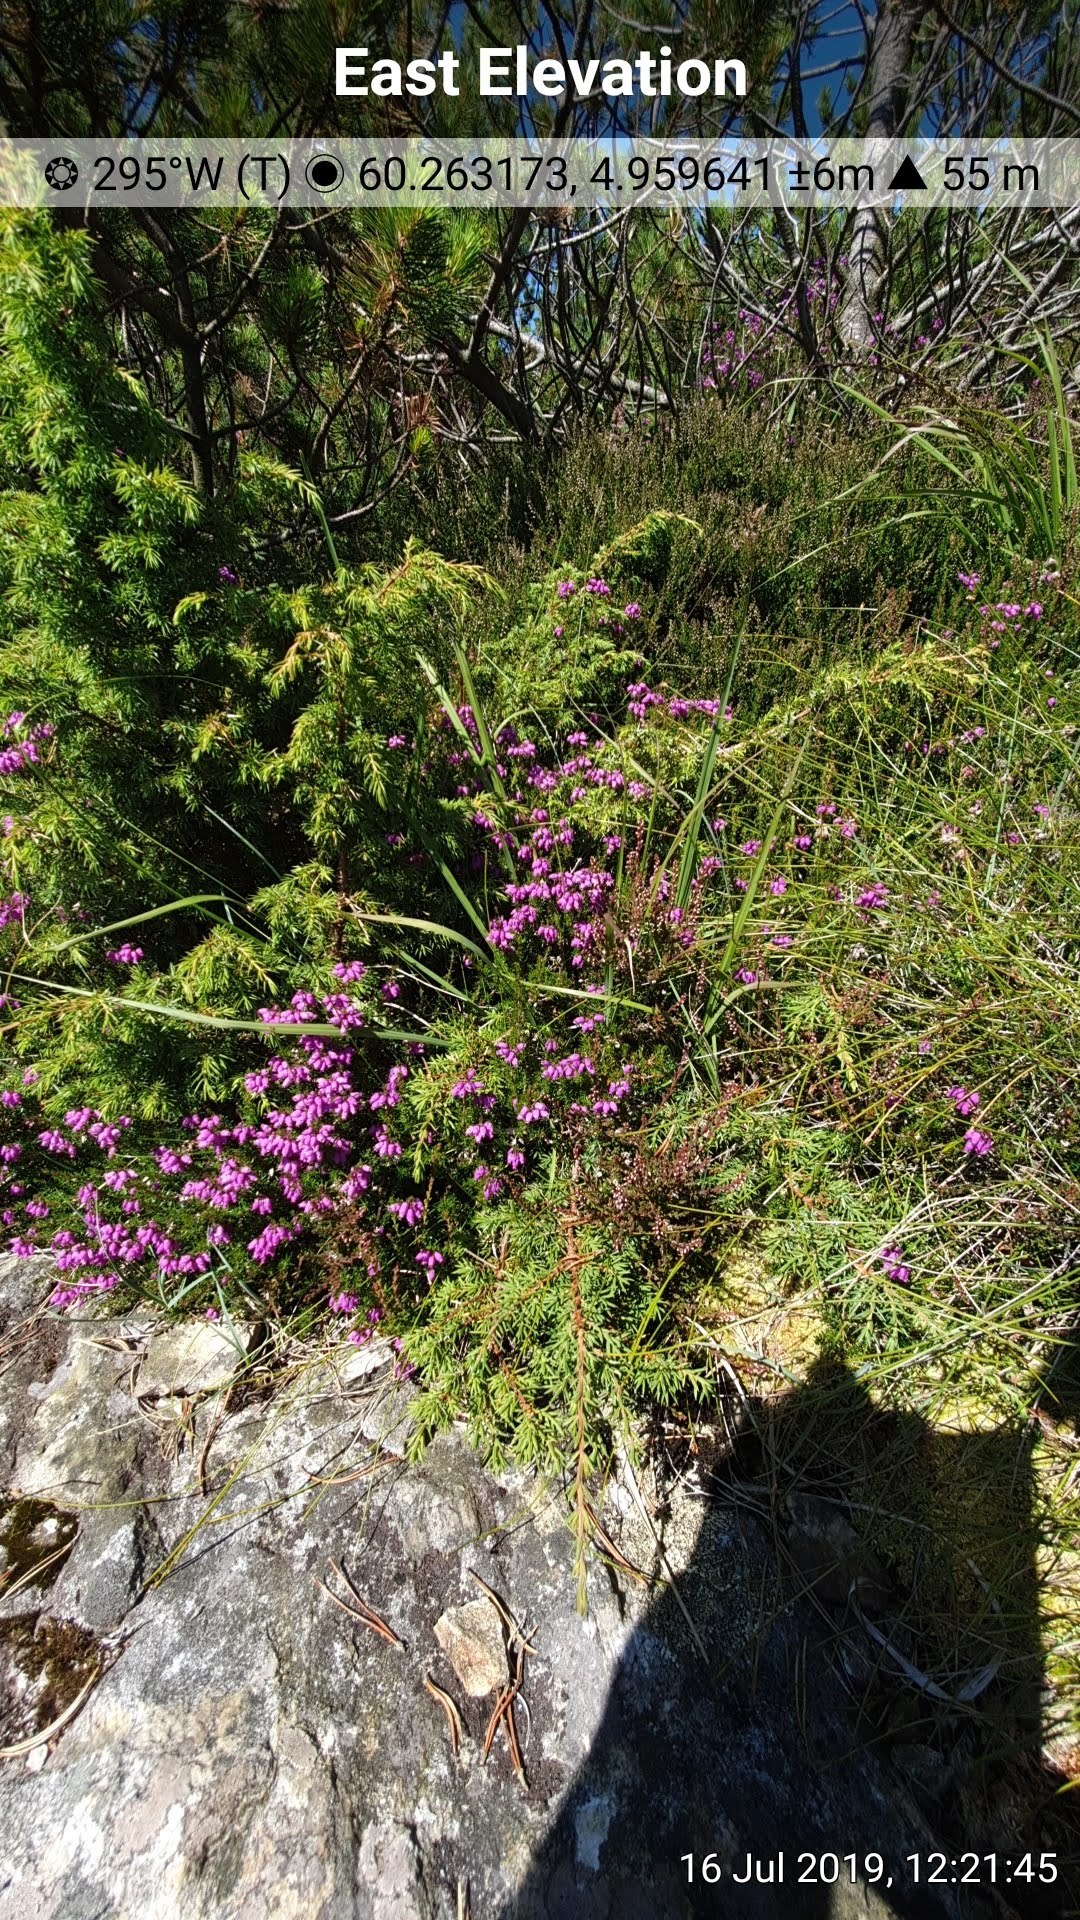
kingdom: Plantae
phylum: Tracheophyta
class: Magnoliopsida
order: Ericales
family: Ericaceae
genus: Erica
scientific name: Erica cinerea
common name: Bell heather
